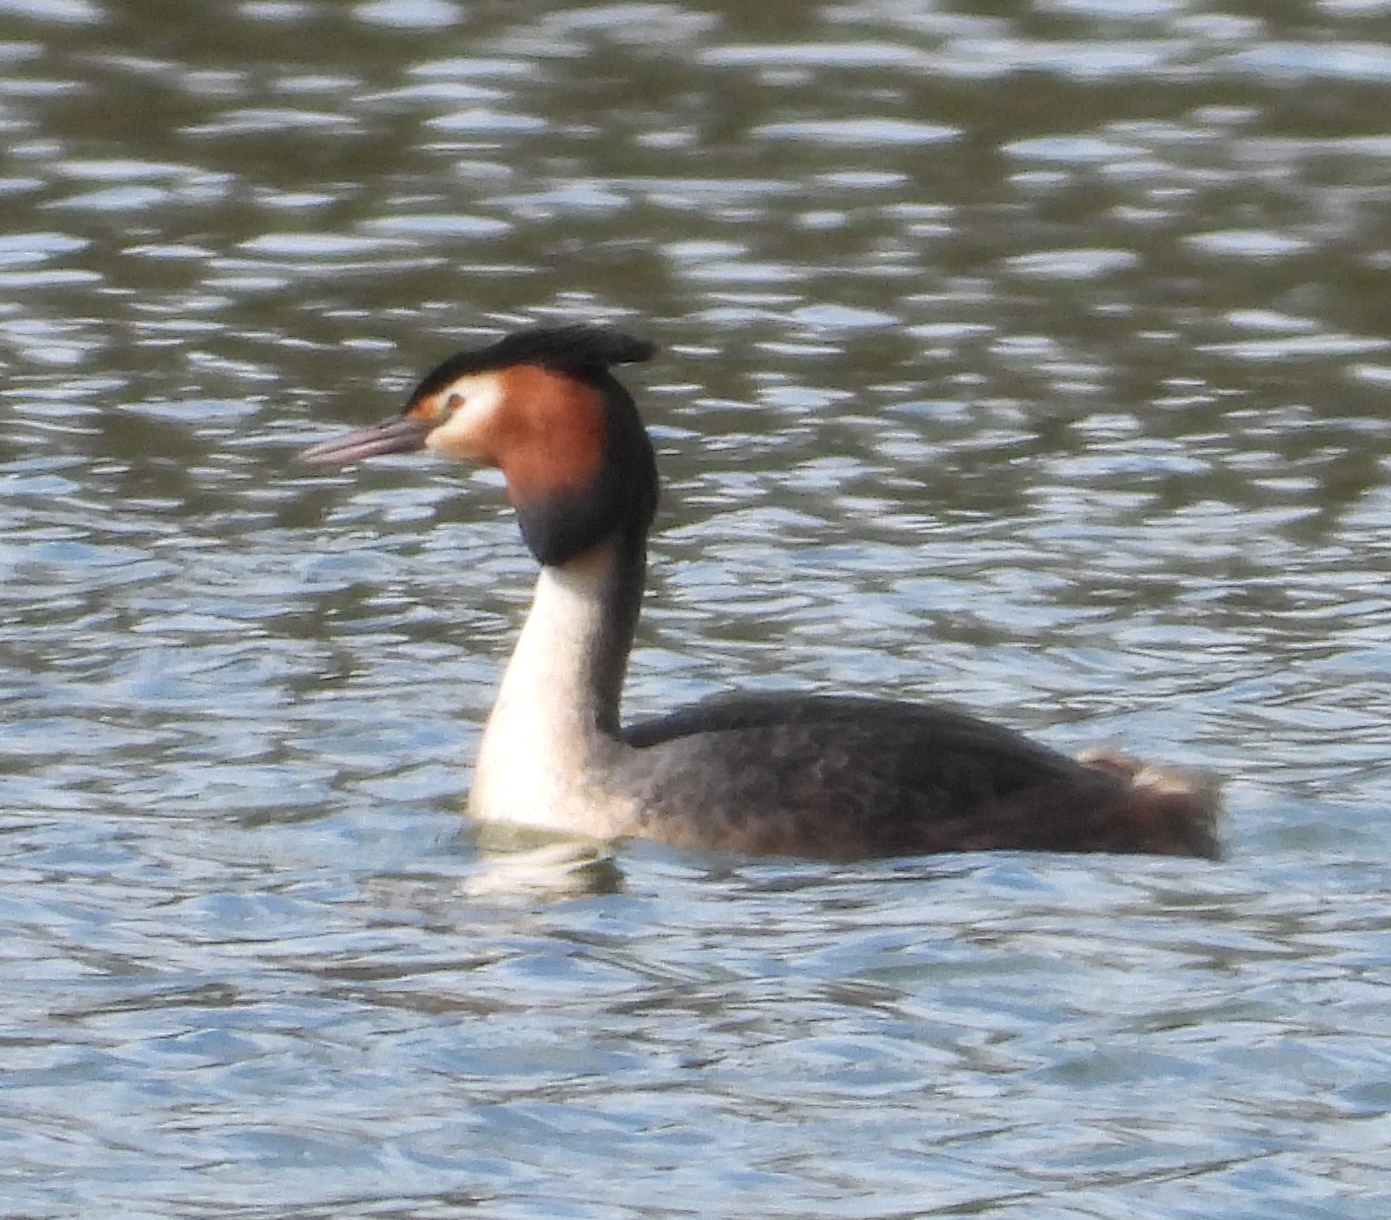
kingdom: Animalia
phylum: Chordata
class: Aves
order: Podicipediformes
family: Podicipedidae
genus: Podiceps
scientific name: Podiceps cristatus
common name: Great crested grebe
